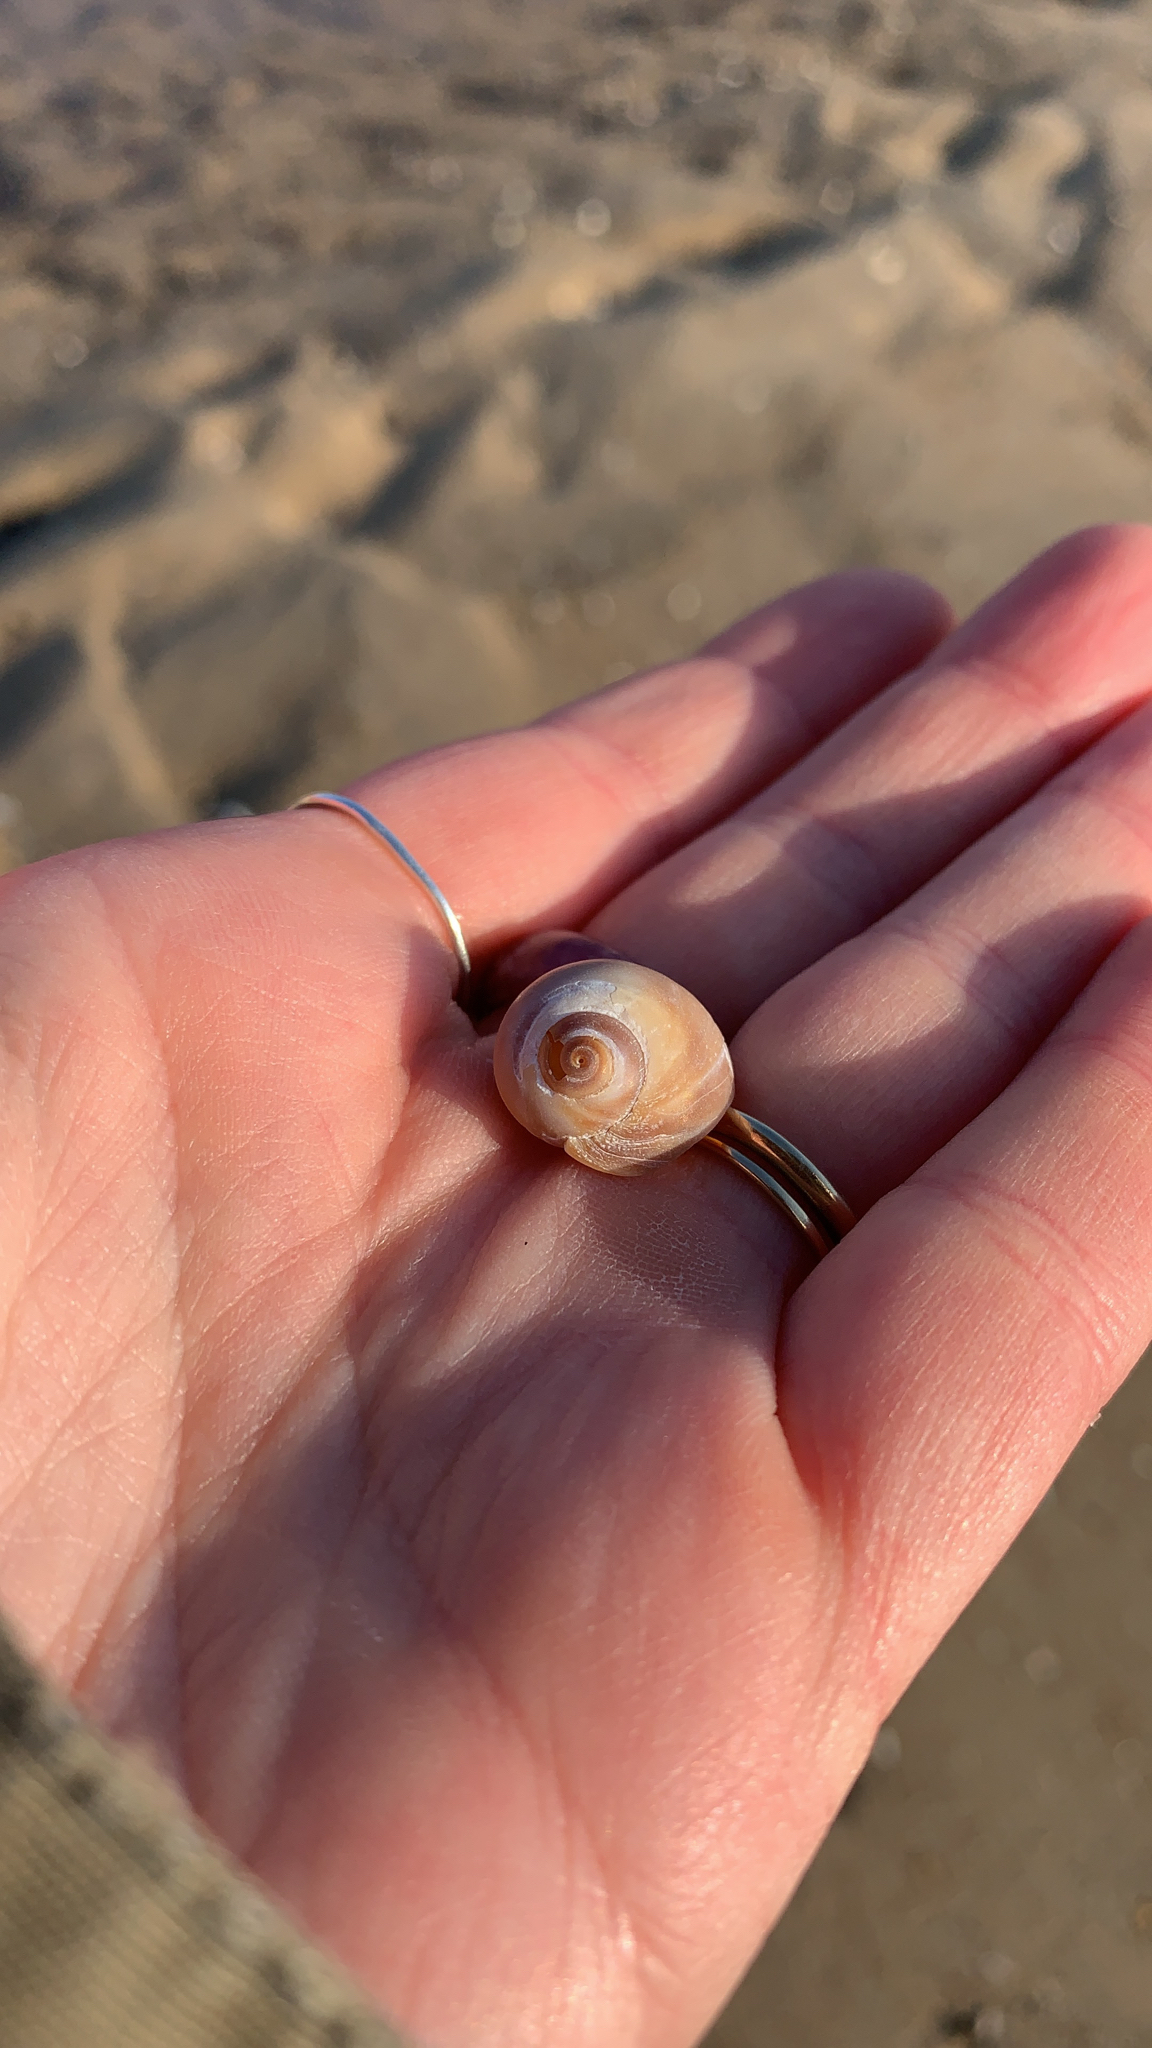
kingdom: Animalia
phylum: Mollusca
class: Gastropoda
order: Littorinimorpha
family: Naticidae
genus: Neverita
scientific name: Neverita duplicata
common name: Lobed moonsnail
